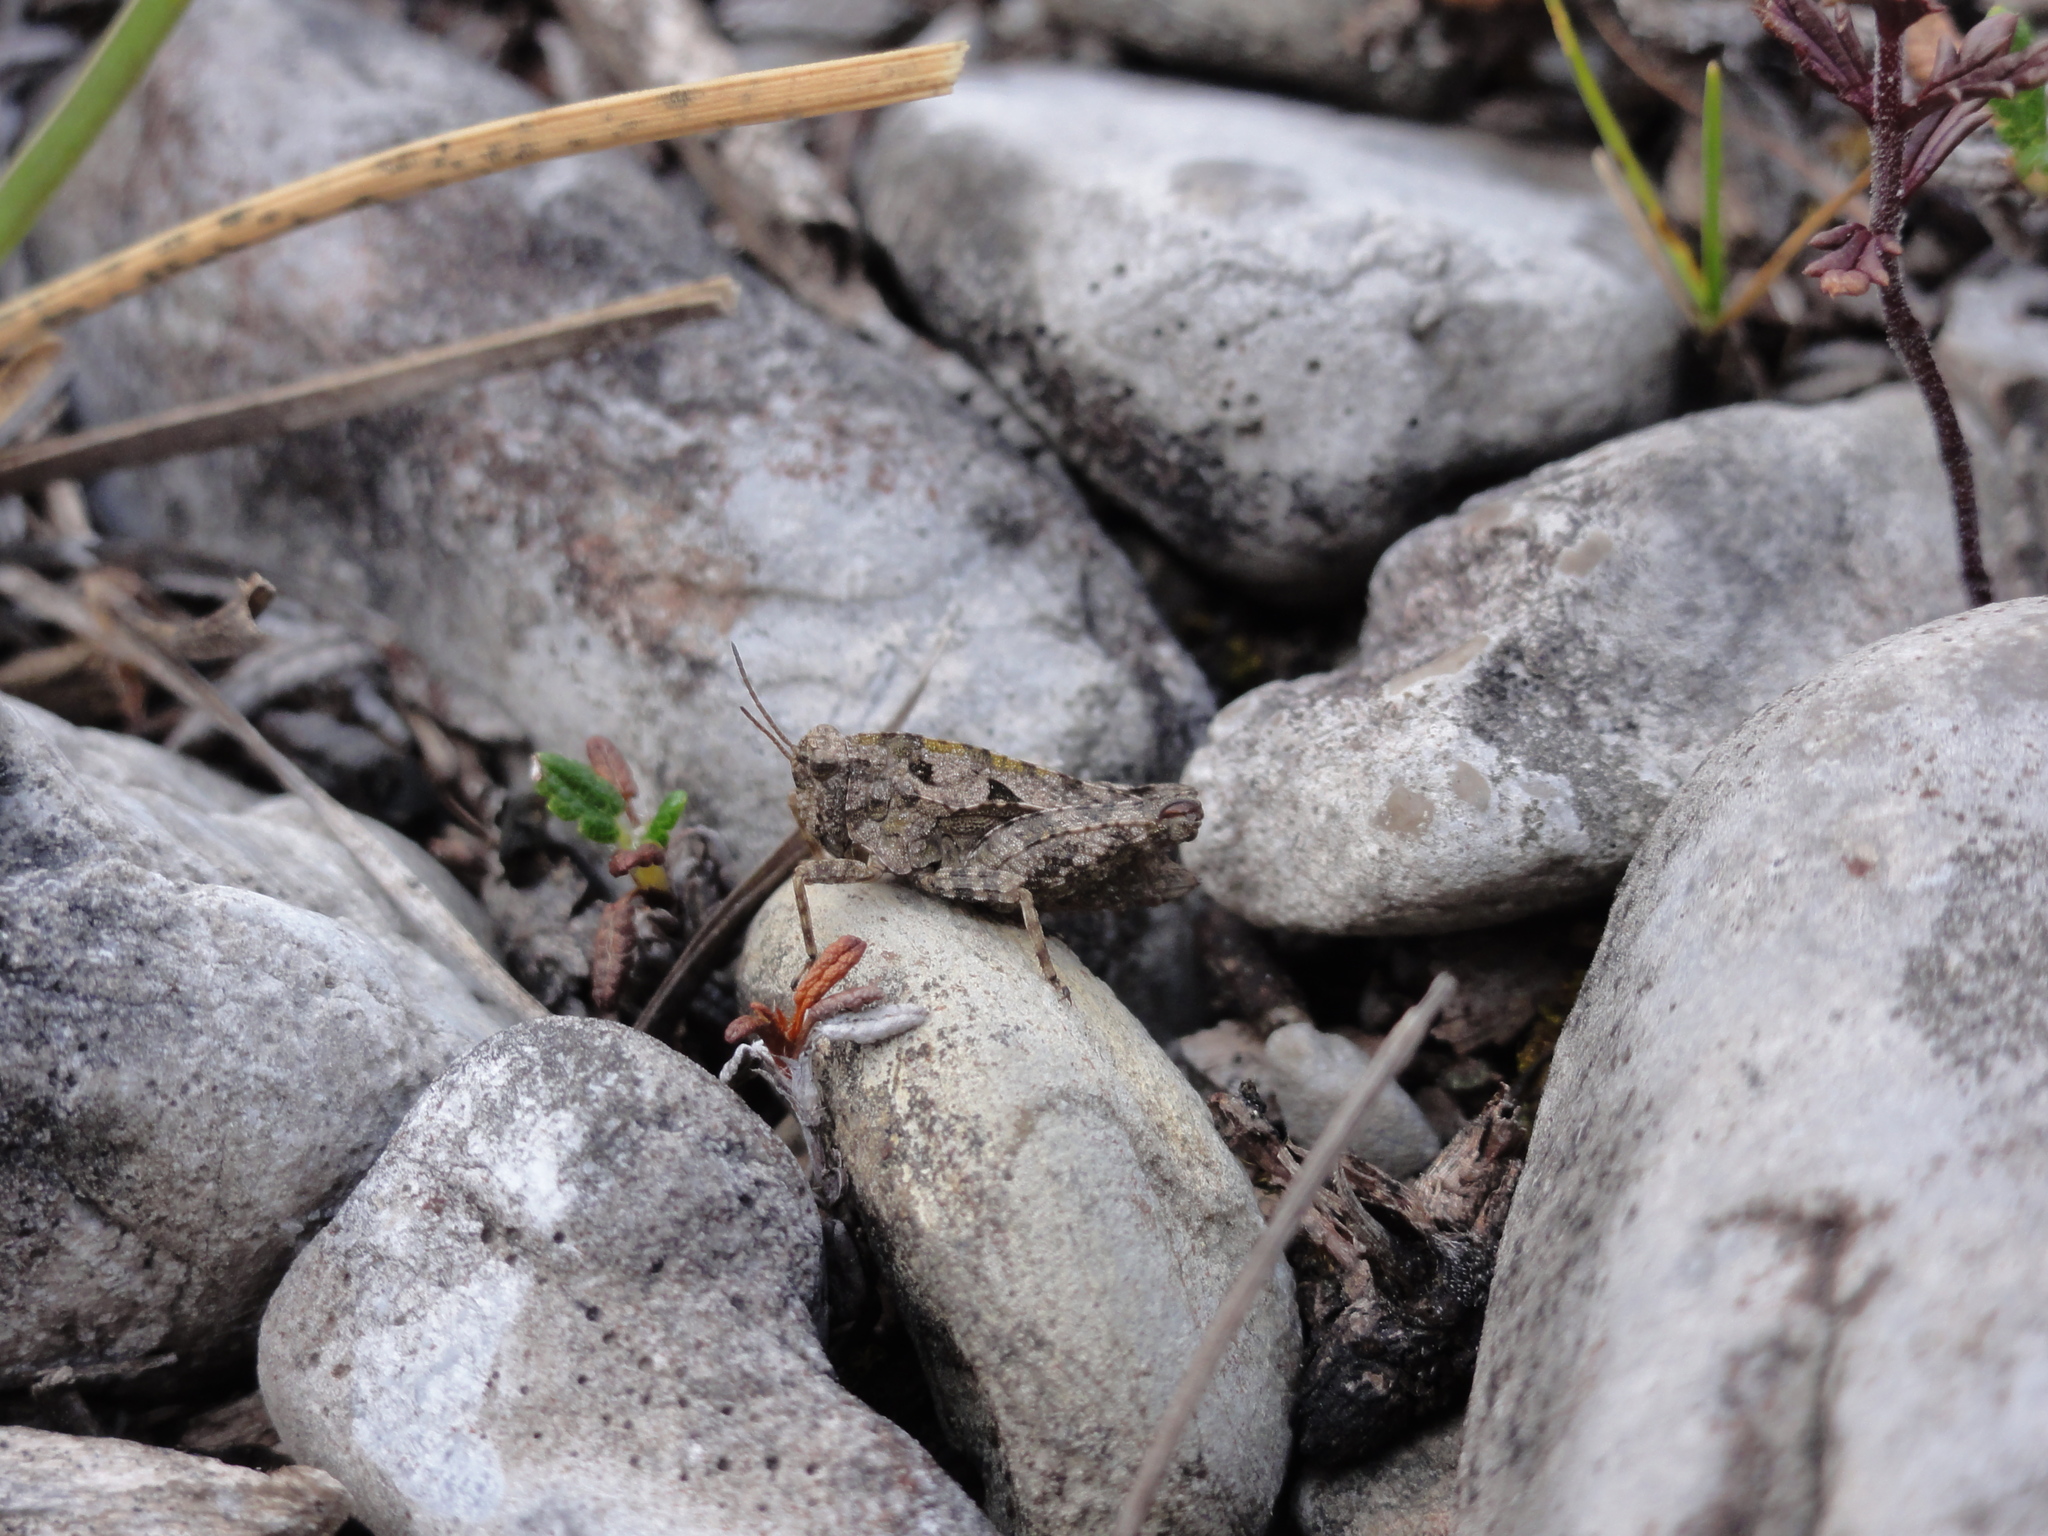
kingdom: Animalia
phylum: Arthropoda
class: Insecta
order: Orthoptera
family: Tetrigidae
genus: Tetrix
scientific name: Tetrix tenuicornis
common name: Long-horned groundhopper
